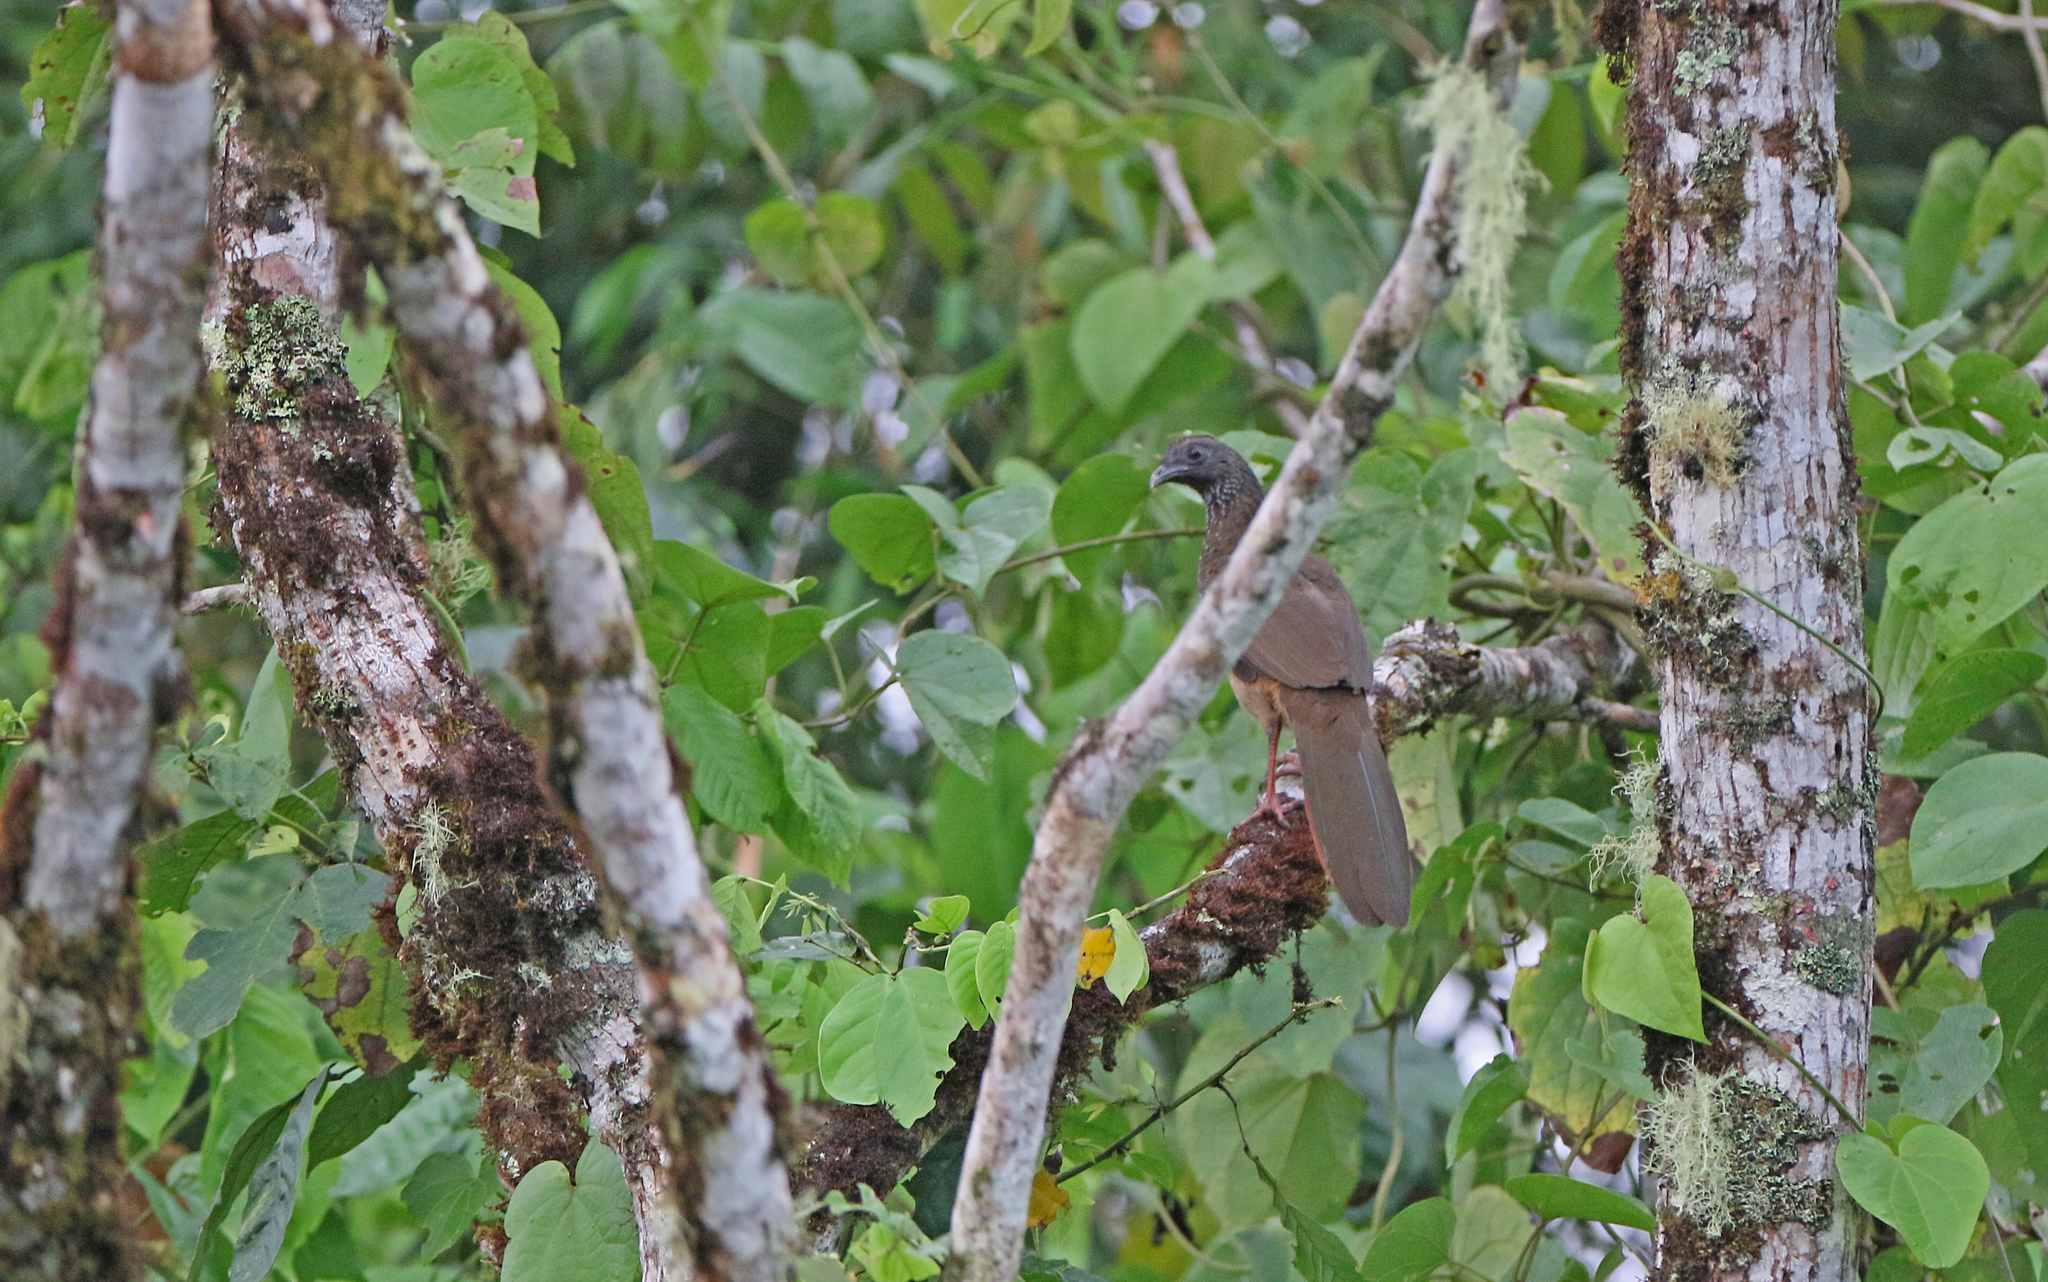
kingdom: Animalia
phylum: Chordata
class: Aves
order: Galliformes
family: Cracidae
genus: Ortalis
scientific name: Ortalis guttata
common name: Speckled chachalaca
